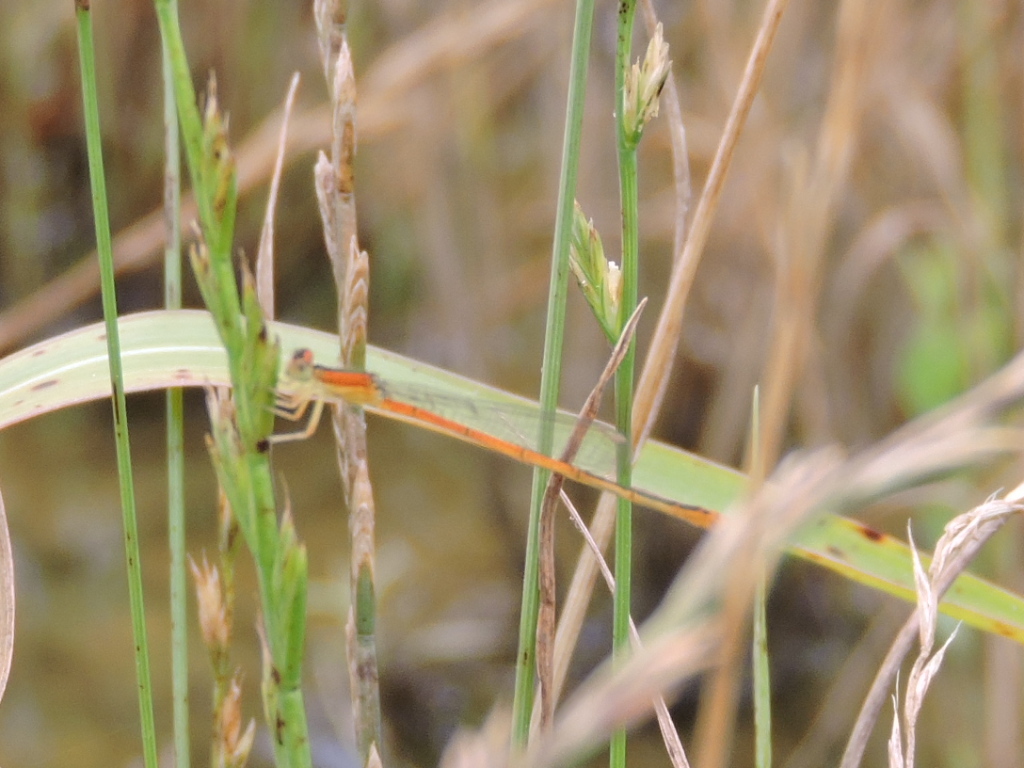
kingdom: Animalia
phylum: Arthropoda
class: Insecta
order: Odonata
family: Coenagrionidae
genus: Ischnura
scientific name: Ischnura hastata
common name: Citrine forktail
